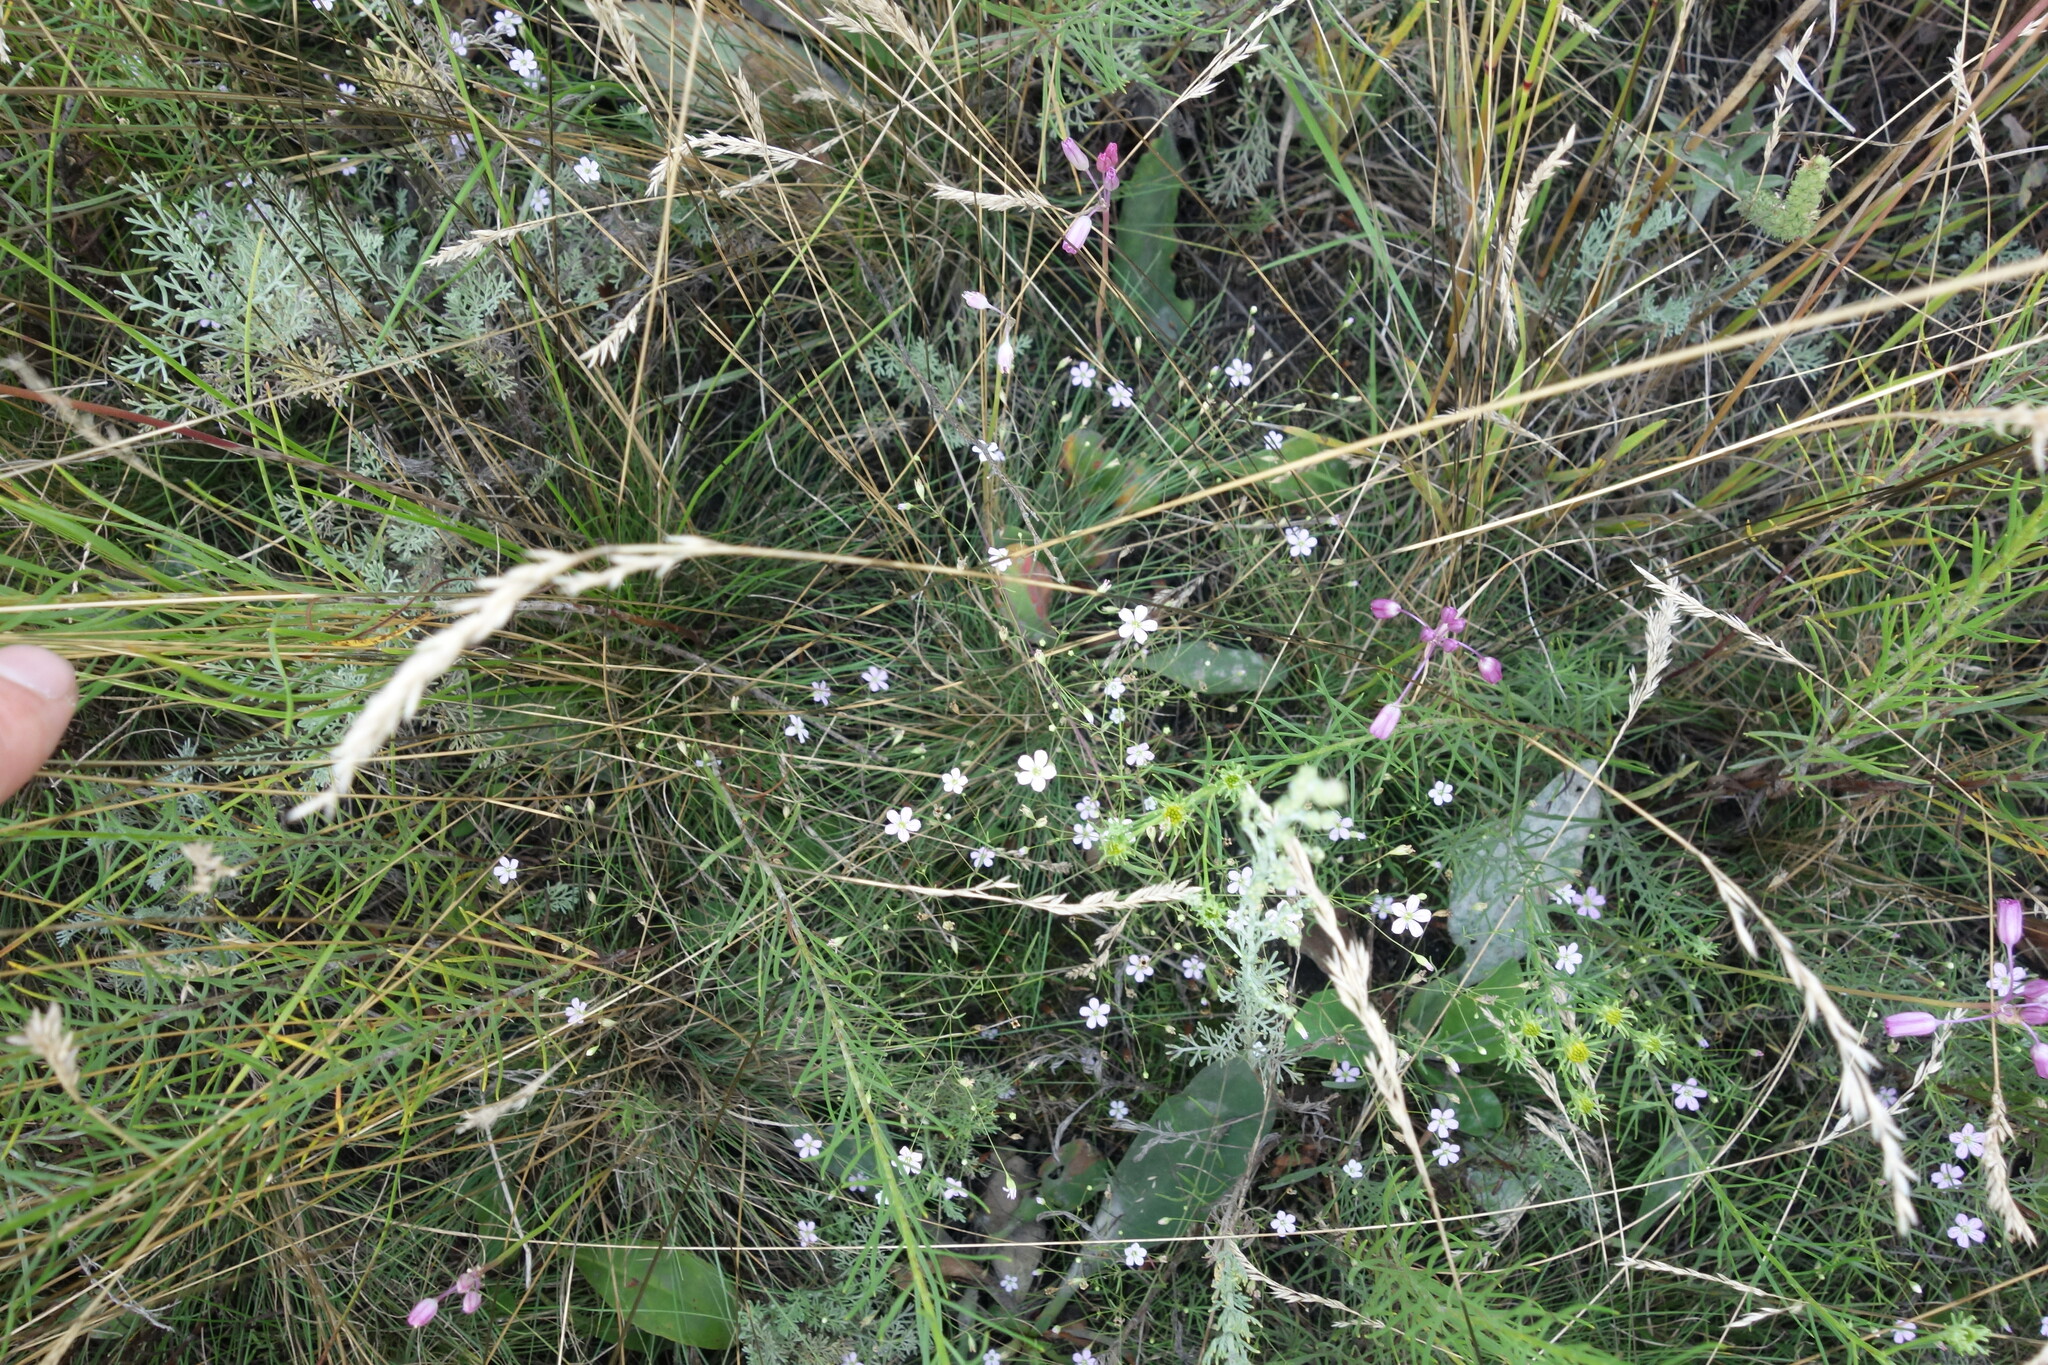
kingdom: Plantae
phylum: Tracheophyta
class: Magnoliopsida
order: Caryophyllales
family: Caryophyllaceae
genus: Psammophiliella
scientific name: Psammophiliella muralis
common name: Cushion baby's-breath
